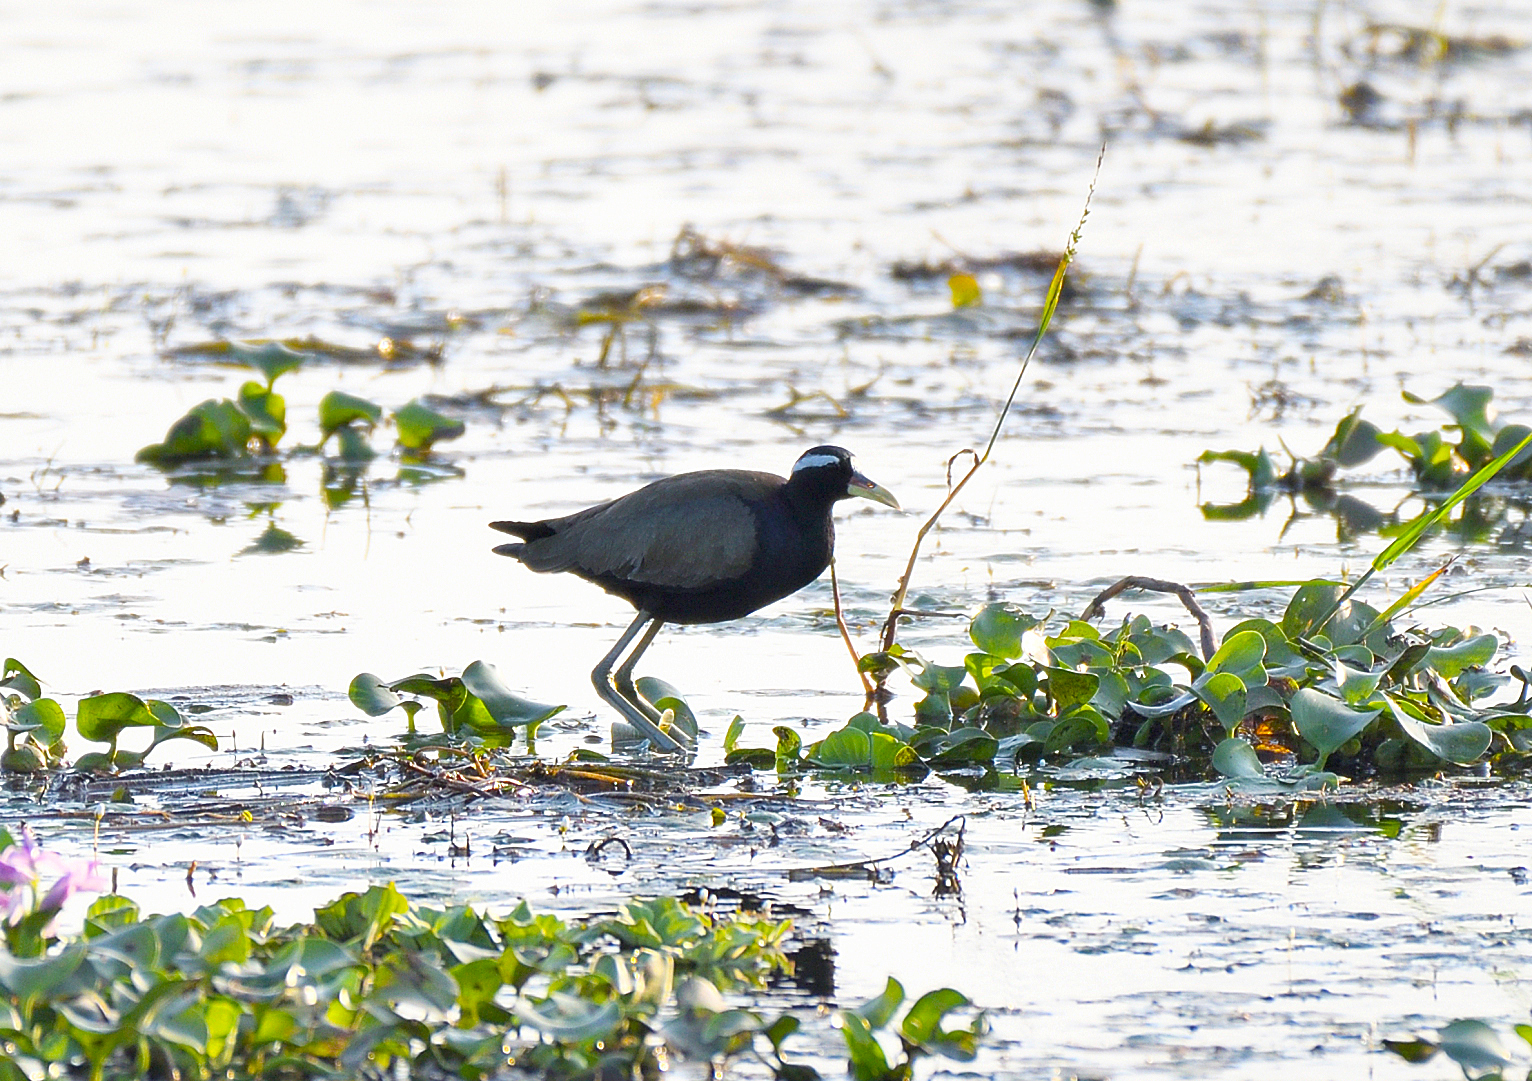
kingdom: Animalia
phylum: Chordata
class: Aves
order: Charadriiformes
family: Jacanidae
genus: Metopidius
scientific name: Metopidius indicus
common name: Bronze-winged jacana
